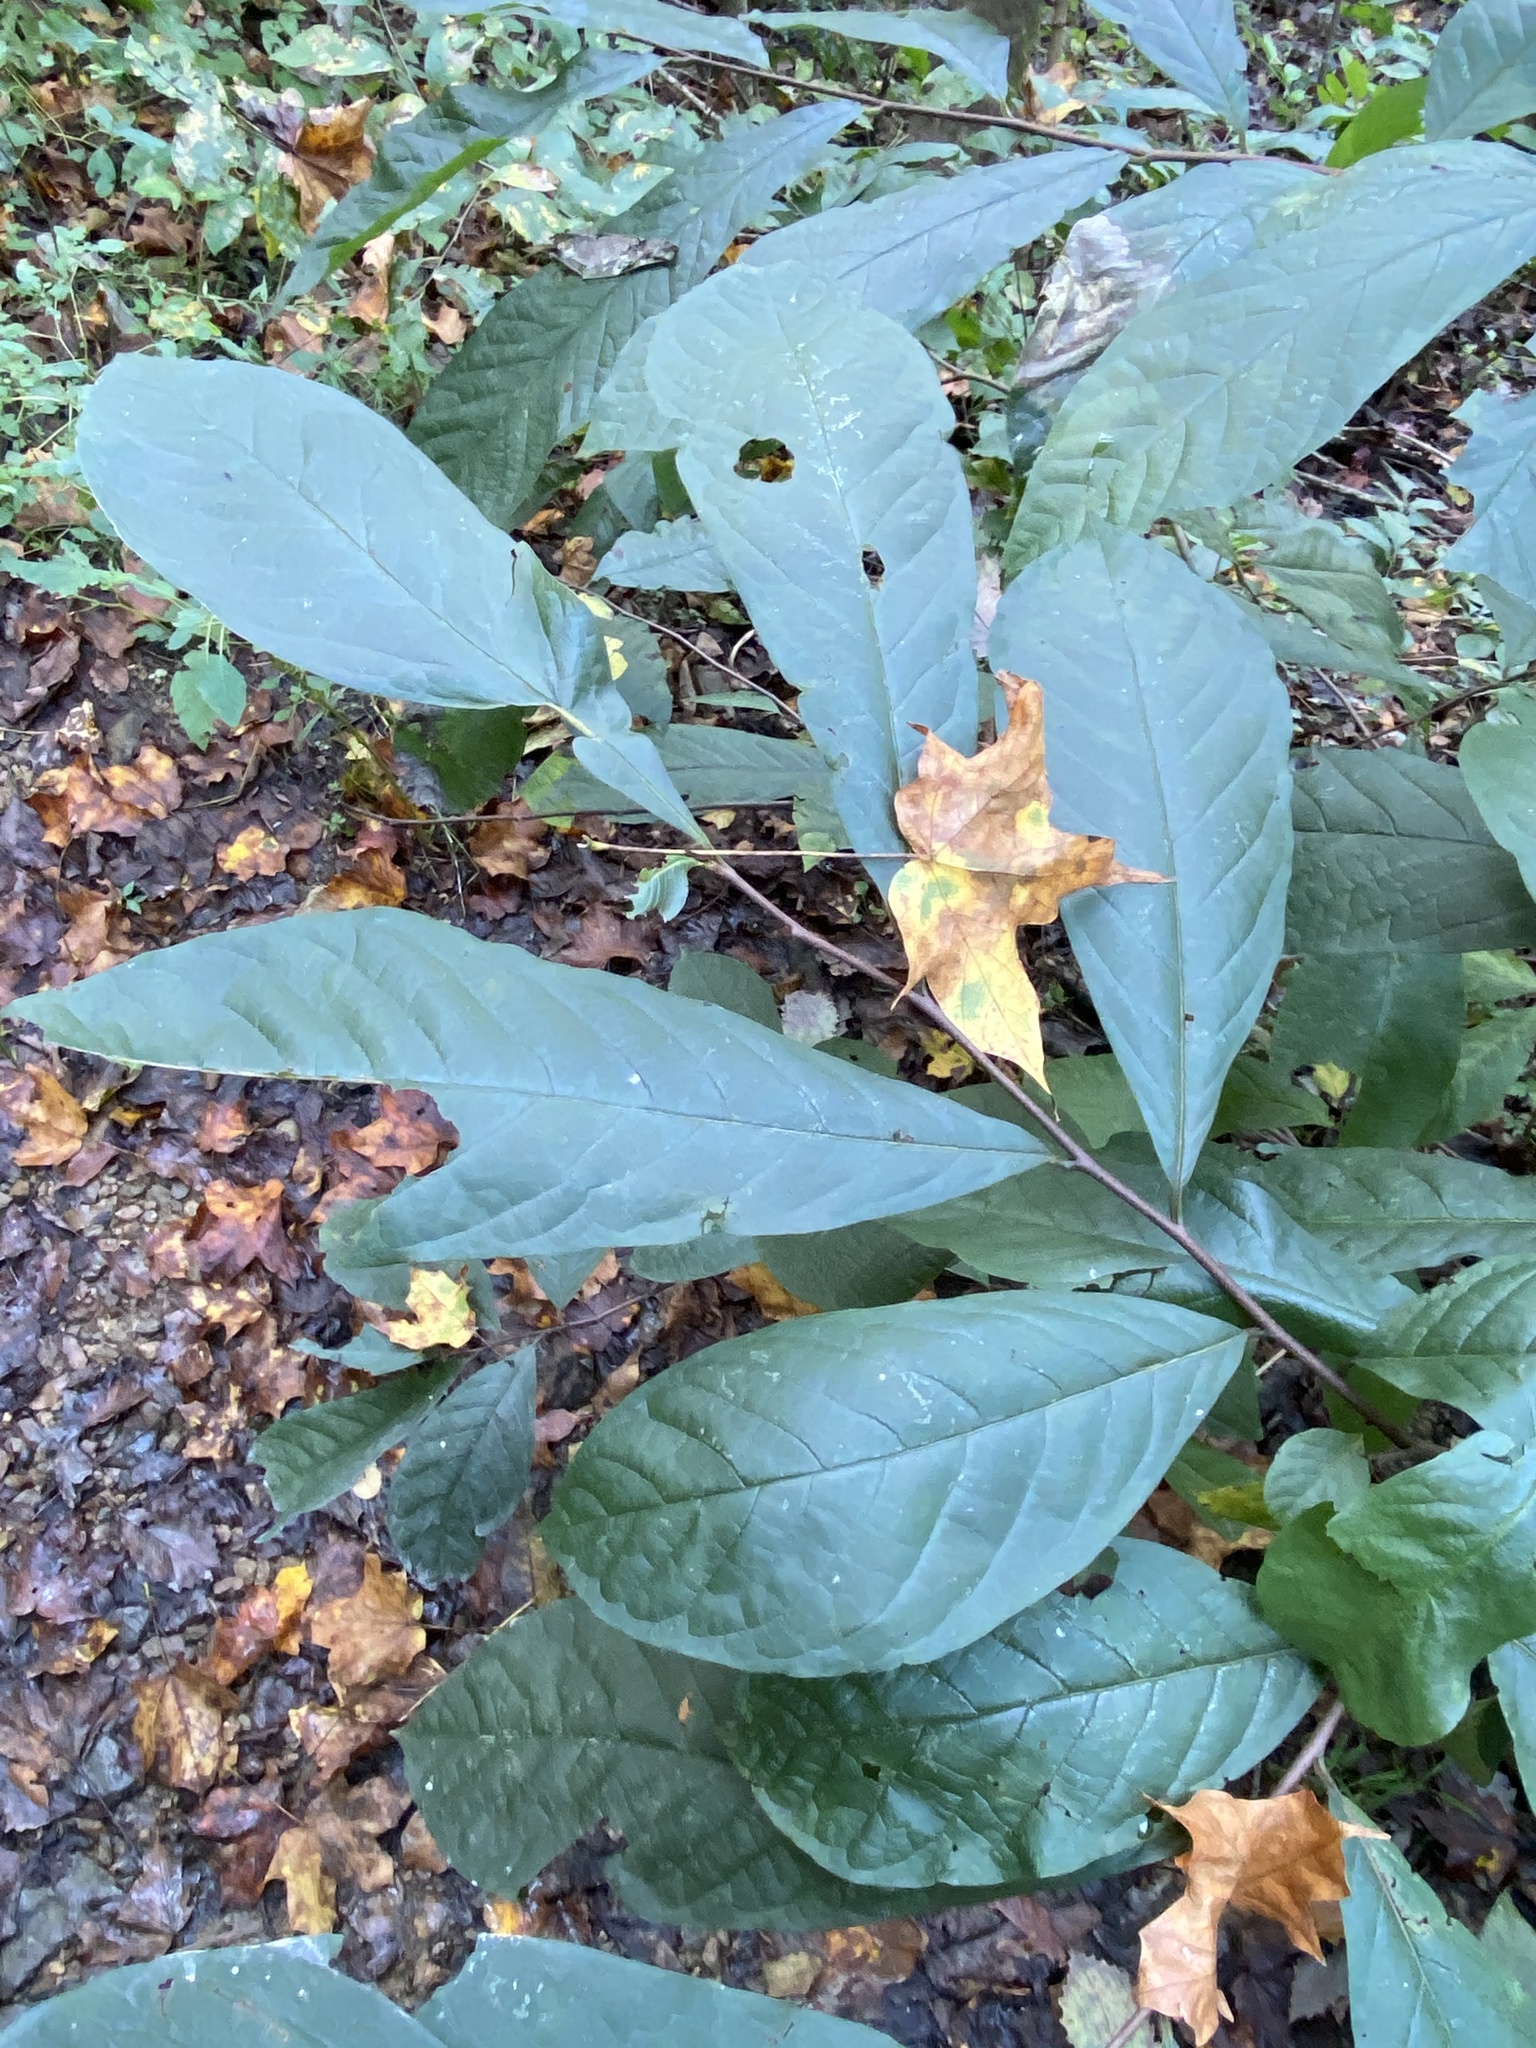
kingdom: Plantae
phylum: Tracheophyta
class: Magnoliopsida
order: Magnoliales
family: Annonaceae
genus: Asimina
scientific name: Asimina triloba
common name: Dog-banana
